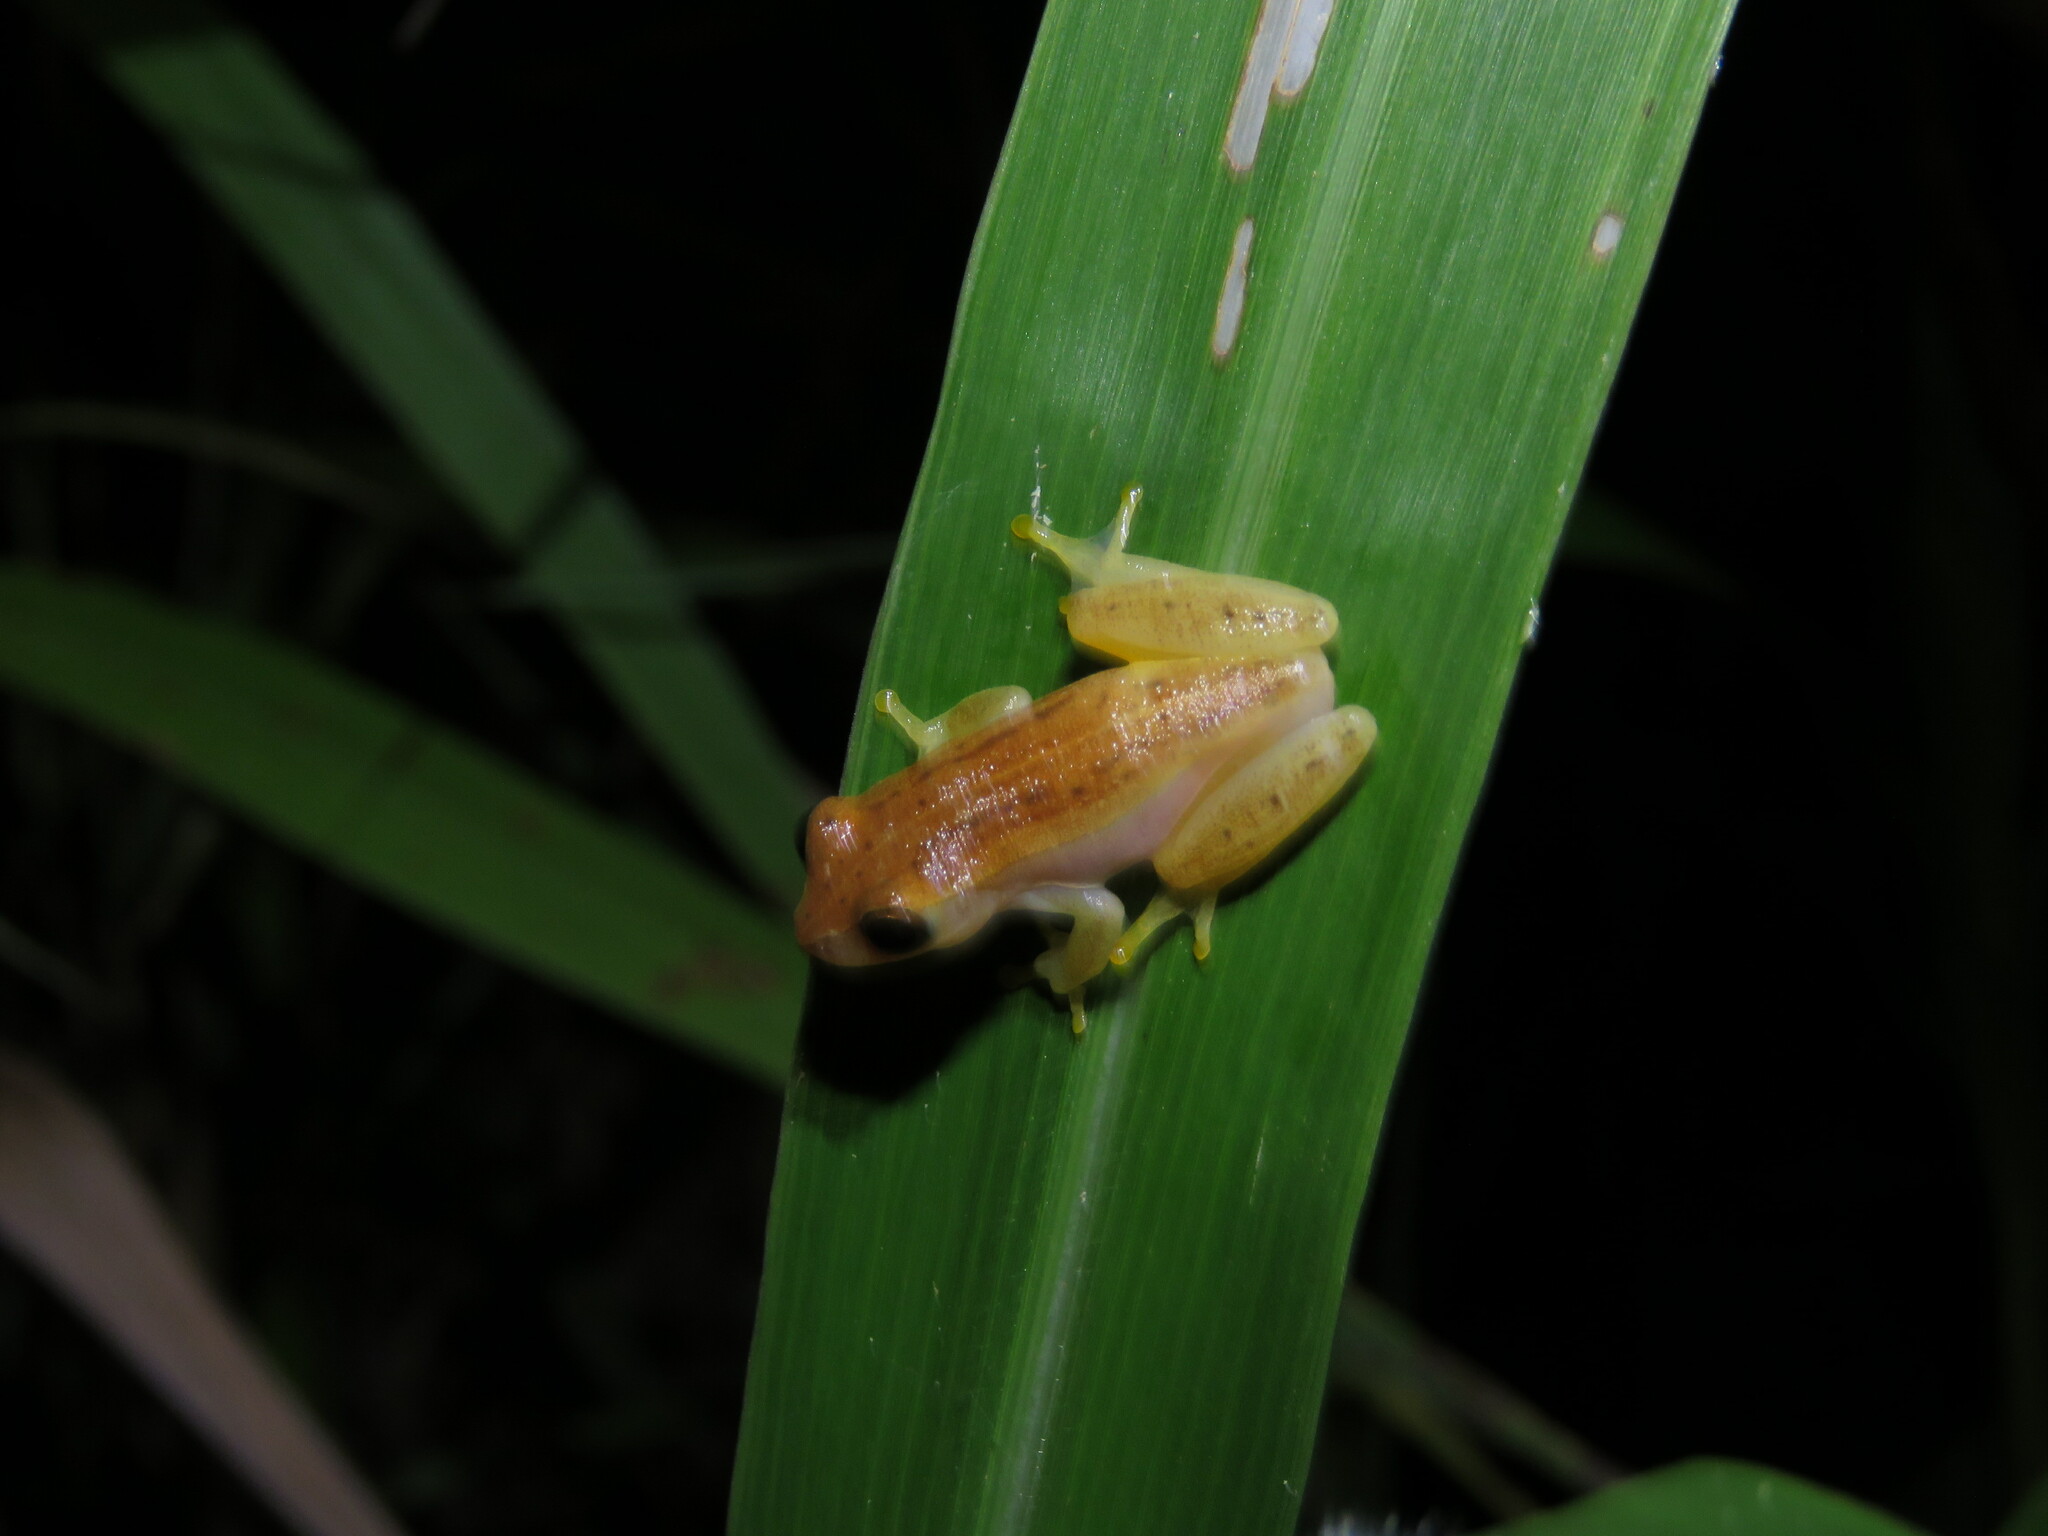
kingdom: Animalia
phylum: Chordata
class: Amphibia
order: Anura
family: Hylidae
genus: Dendropsophus
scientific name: Dendropsophus walfordi
